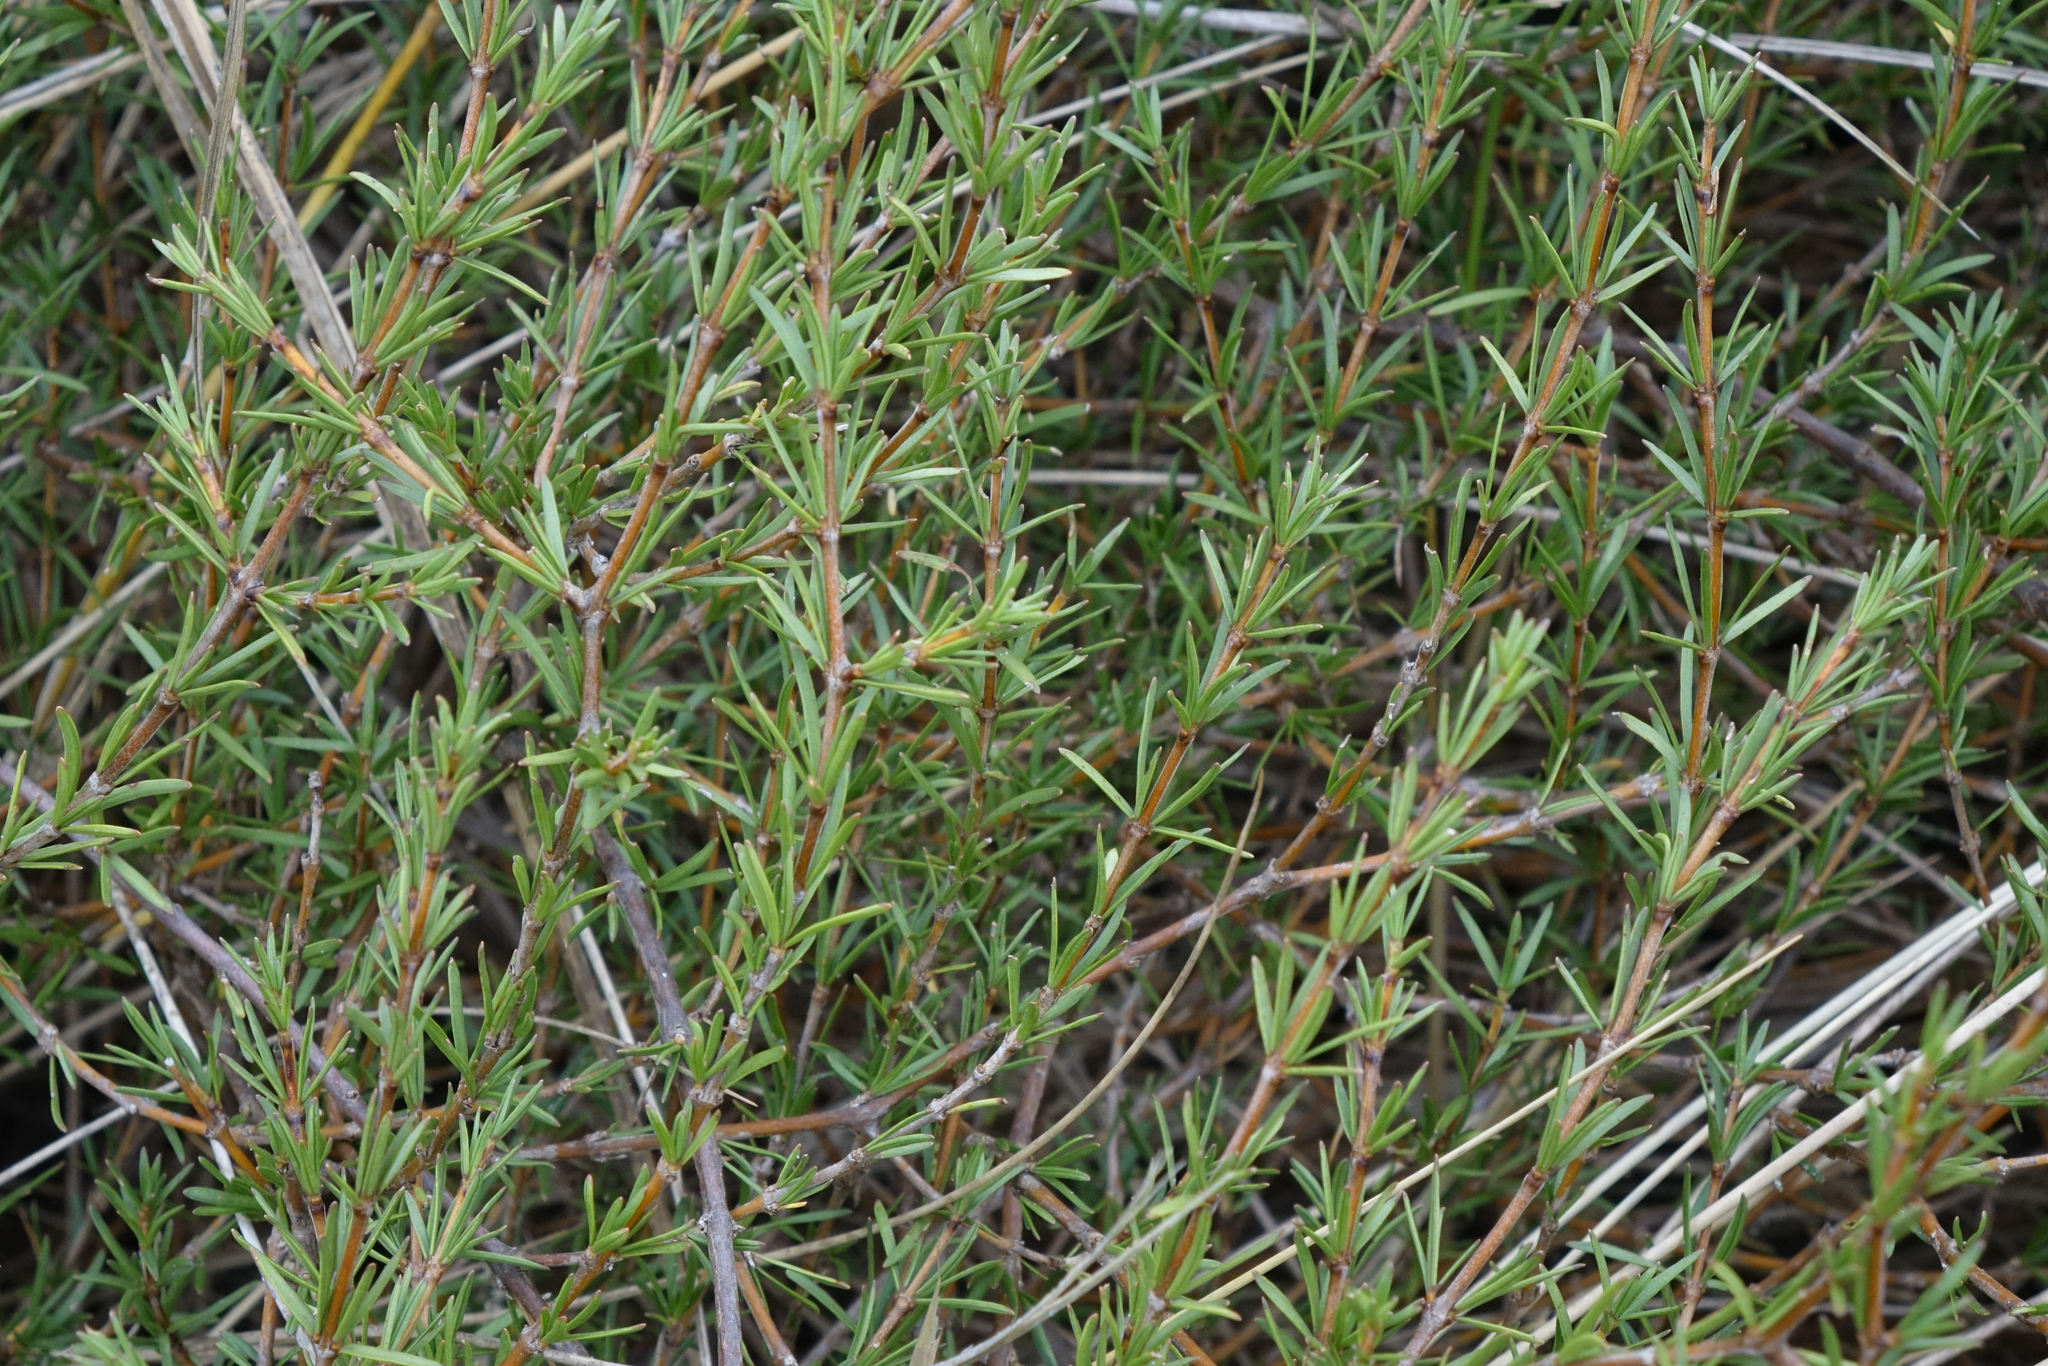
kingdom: Plantae
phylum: Tracheophyta
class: Magnoliopsida
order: Gentianales
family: Rubiaceae
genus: Coprosma
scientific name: Coprosma acerosa
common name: Sand coprosma
